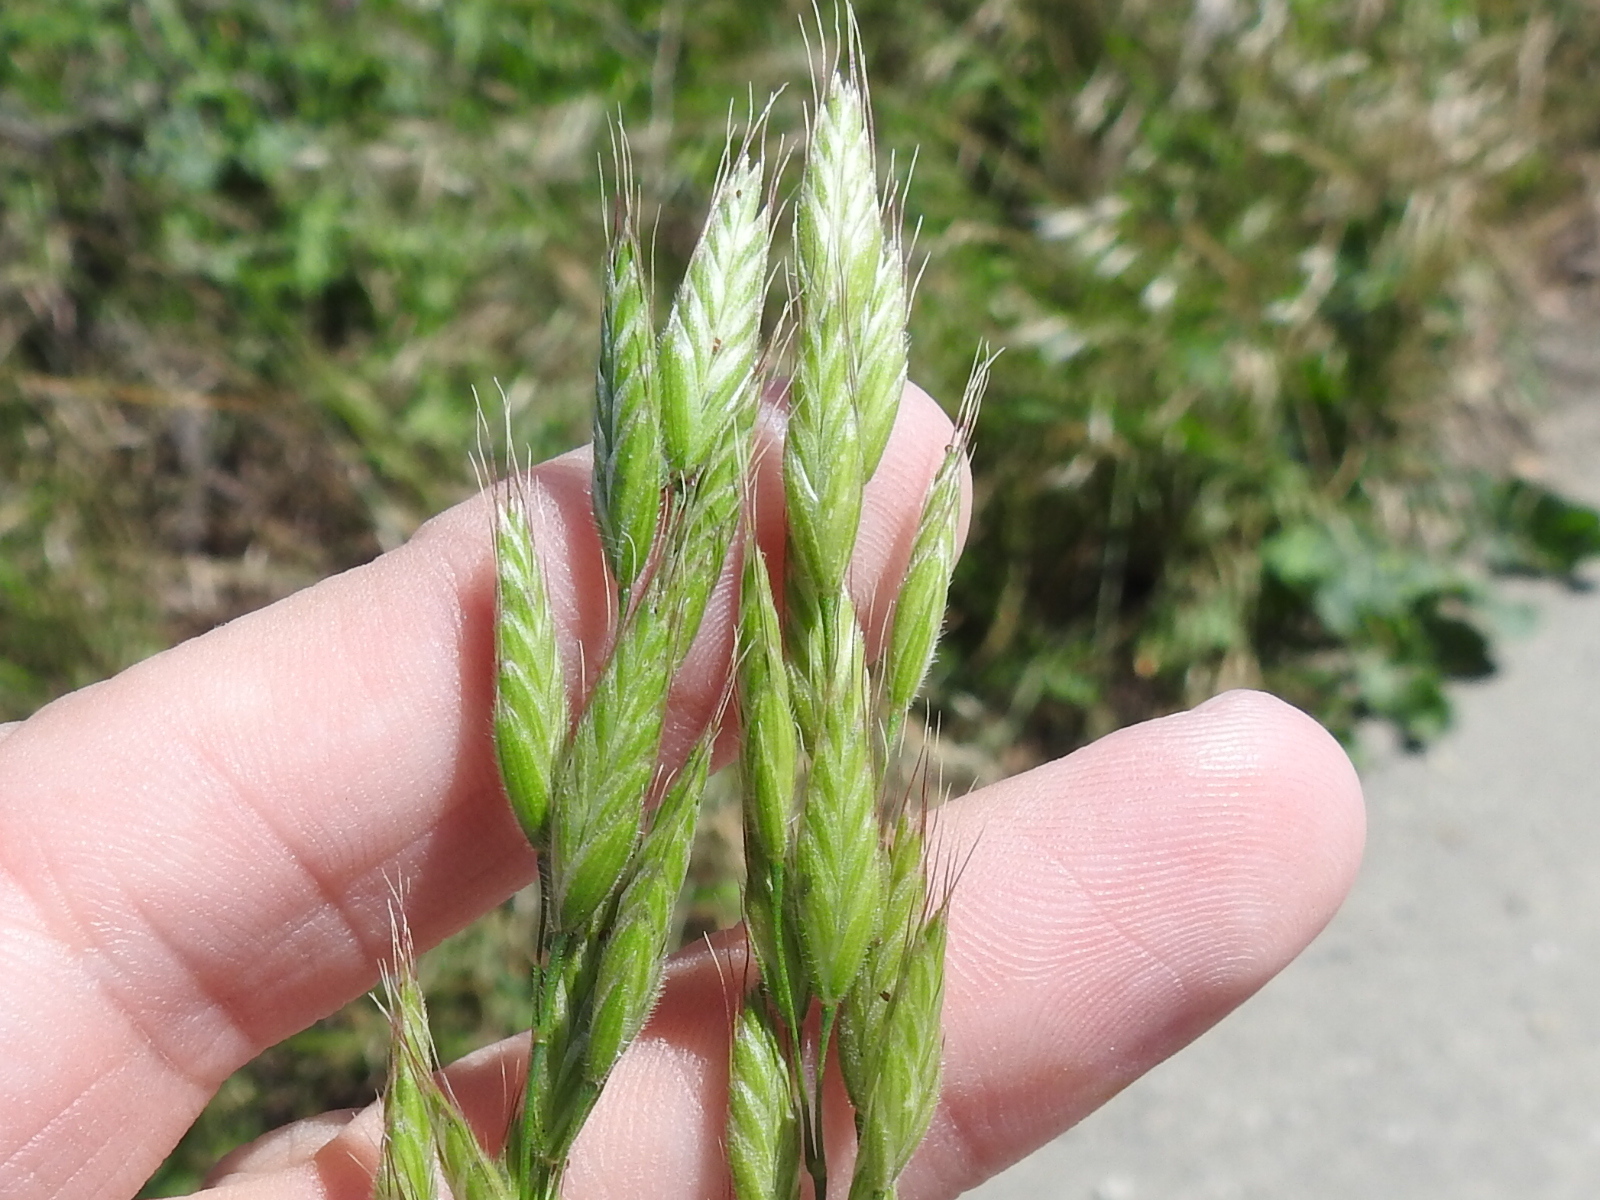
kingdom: Plantae
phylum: Tracheophyta
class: Liliopsida
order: Poales
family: Poaceae
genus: Bromus
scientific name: Bromus hordeaceus
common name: Soft brome
